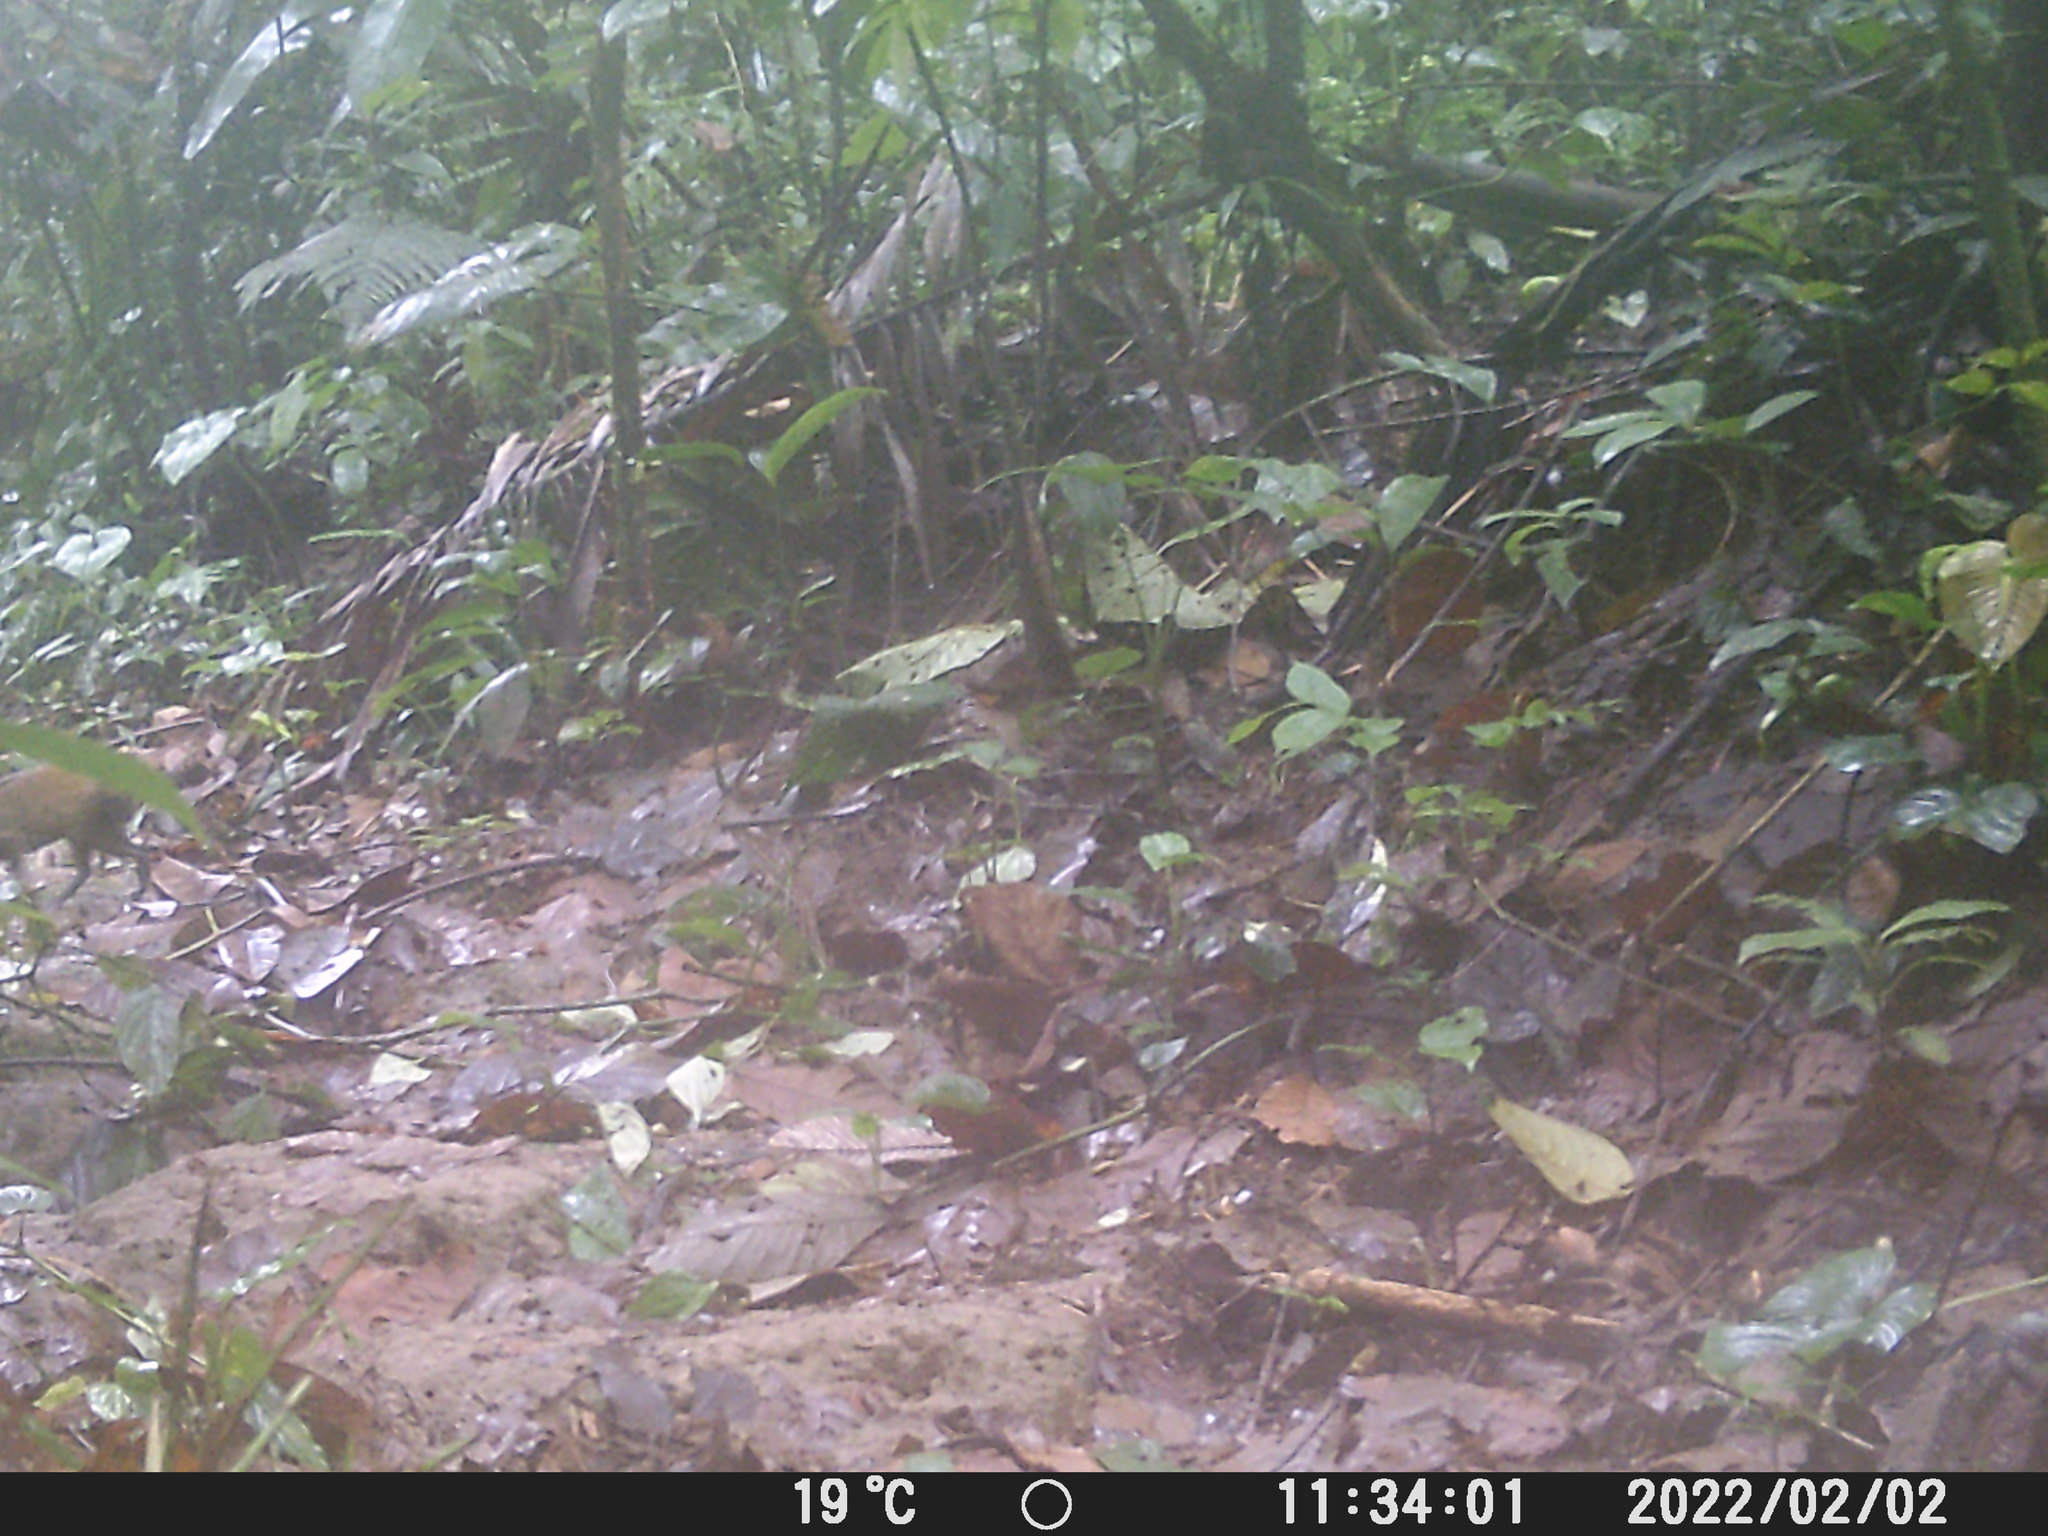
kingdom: Animalia
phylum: Chordata
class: Mammalia
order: Rodentia
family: Dasyproctidae
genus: Dasyprocta
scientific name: Dasyprocta punctata
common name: Central american agouti
